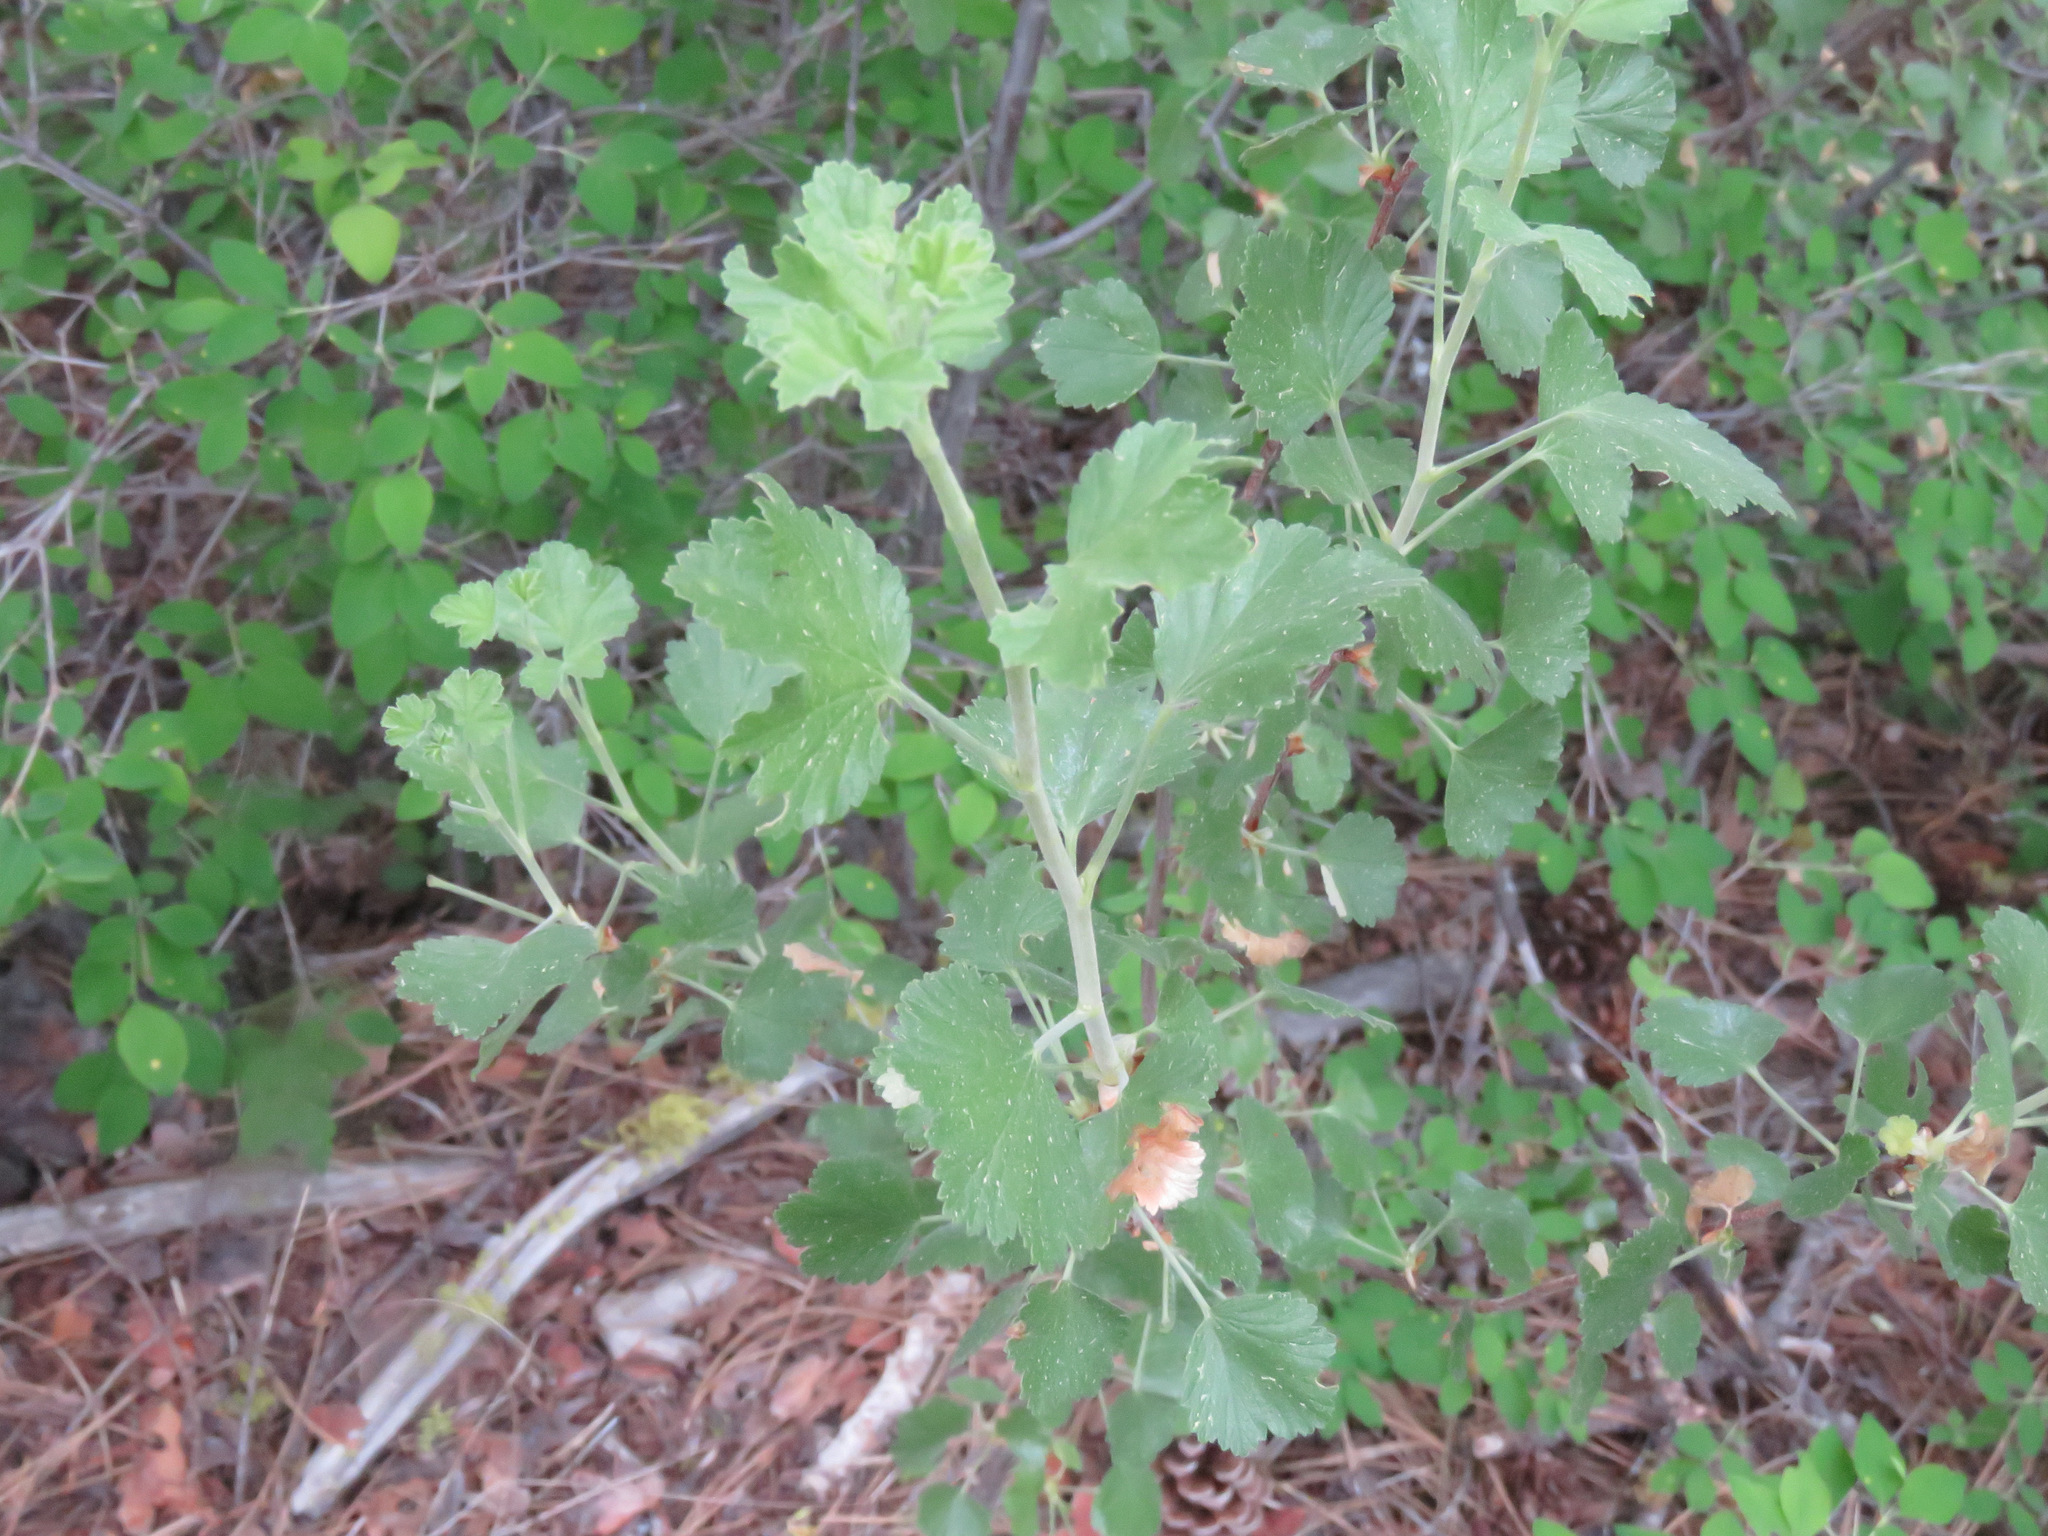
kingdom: Plantae
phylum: Tracheophyta
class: Magnoliopsida
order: Saxifragales
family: Grossulariaceae
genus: Ribes
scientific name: Ribes cereum
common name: Wax currant
